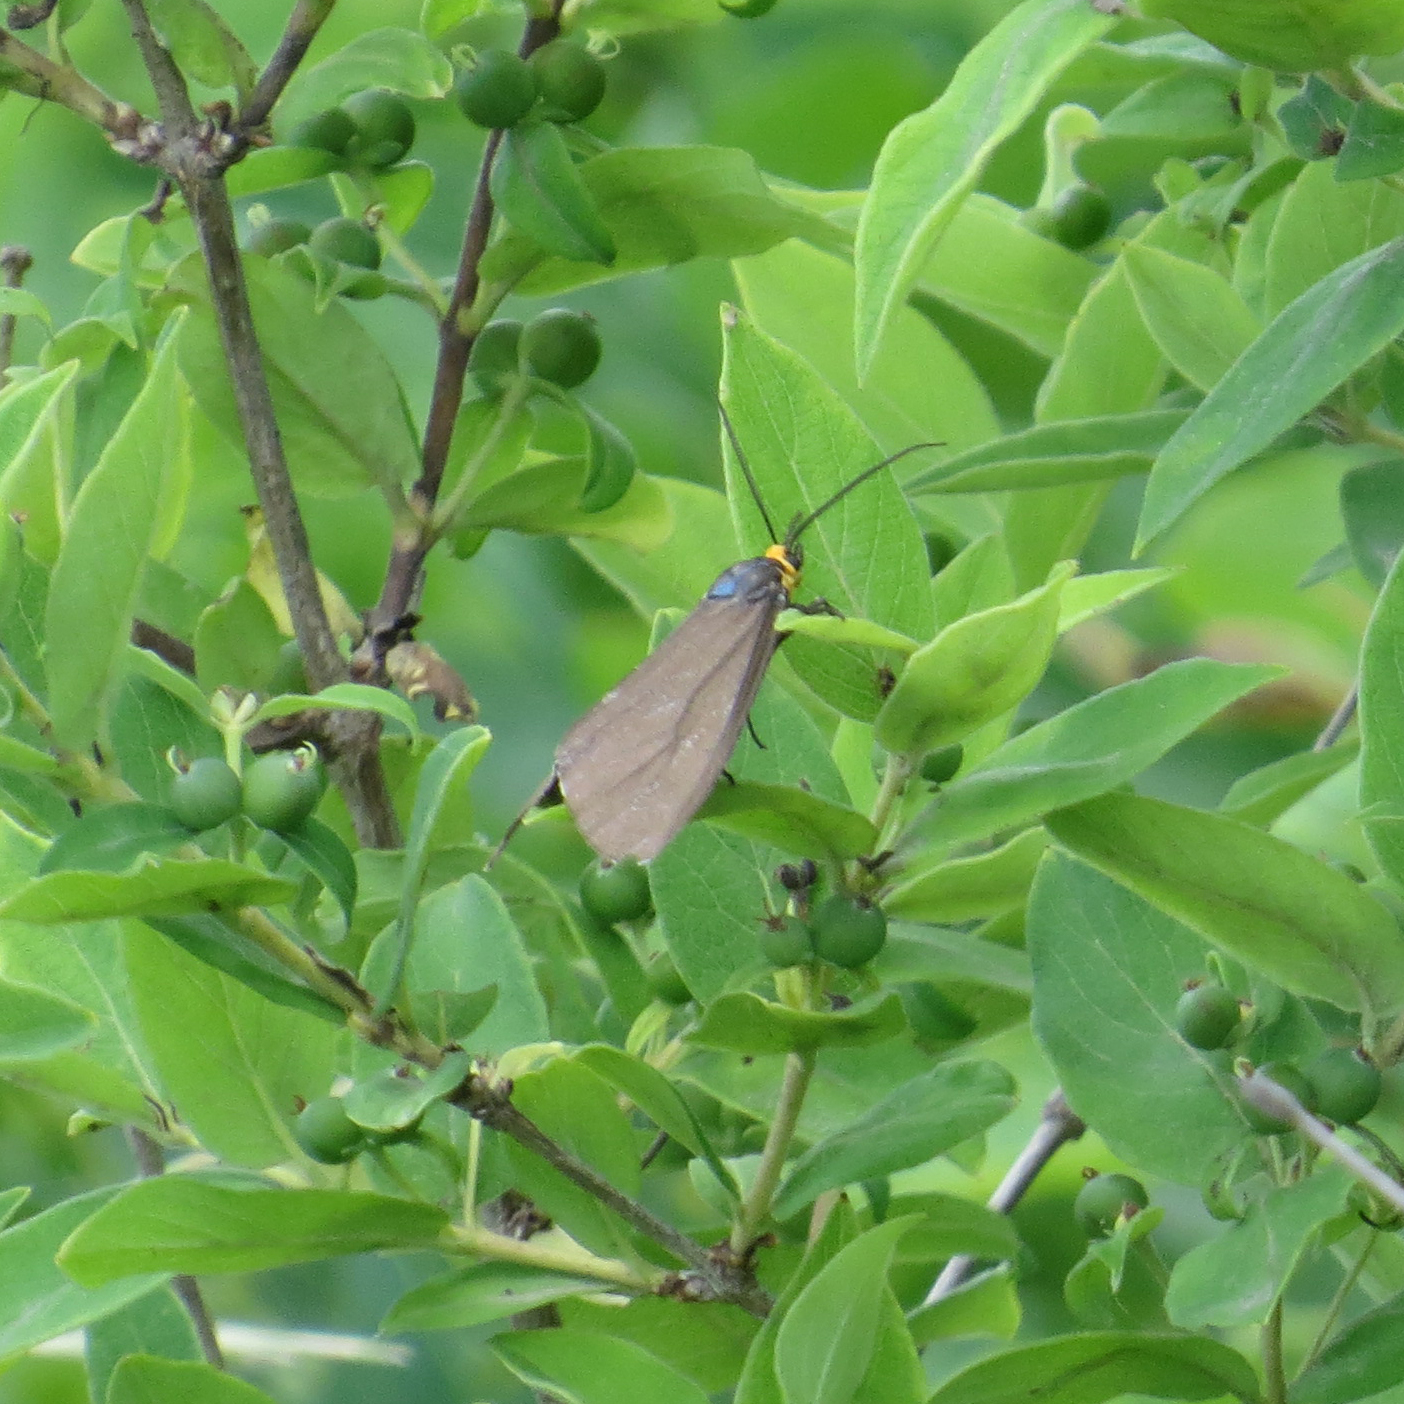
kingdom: Animalia
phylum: Arthropoda
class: Insecta
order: Lepidoptera
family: Erebidae
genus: Ctenucha
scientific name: Ctenucha virginica
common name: Virginia ctenucha moth
